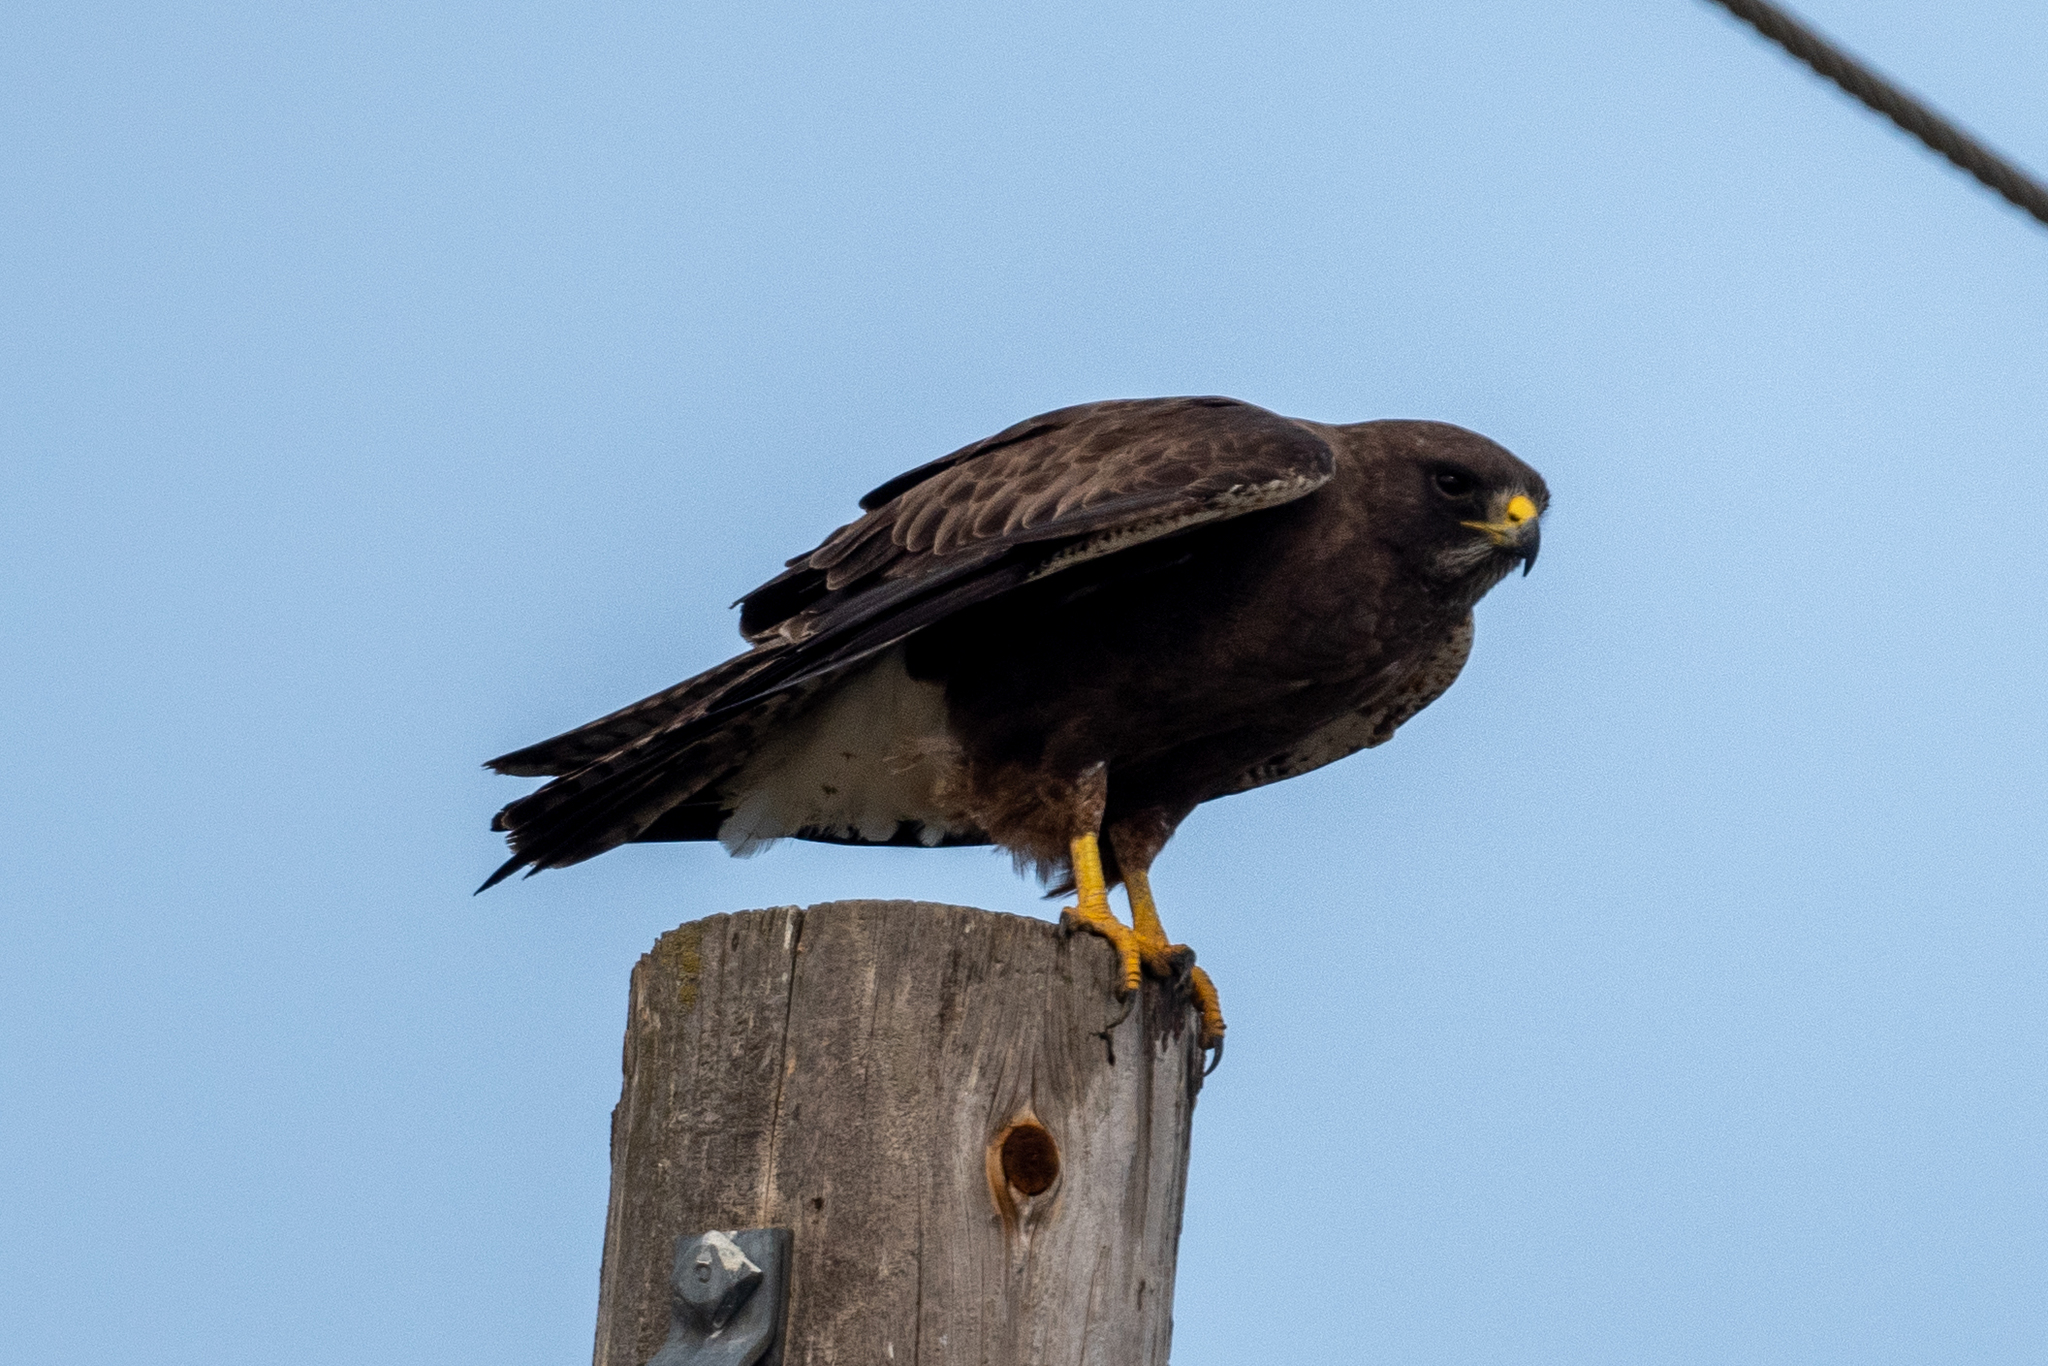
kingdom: Animalia
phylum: Chordata
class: Aves
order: Accipitriformes
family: Accipitridae
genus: Buteo
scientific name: Buteo swainsoni
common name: Swainson's hawk
